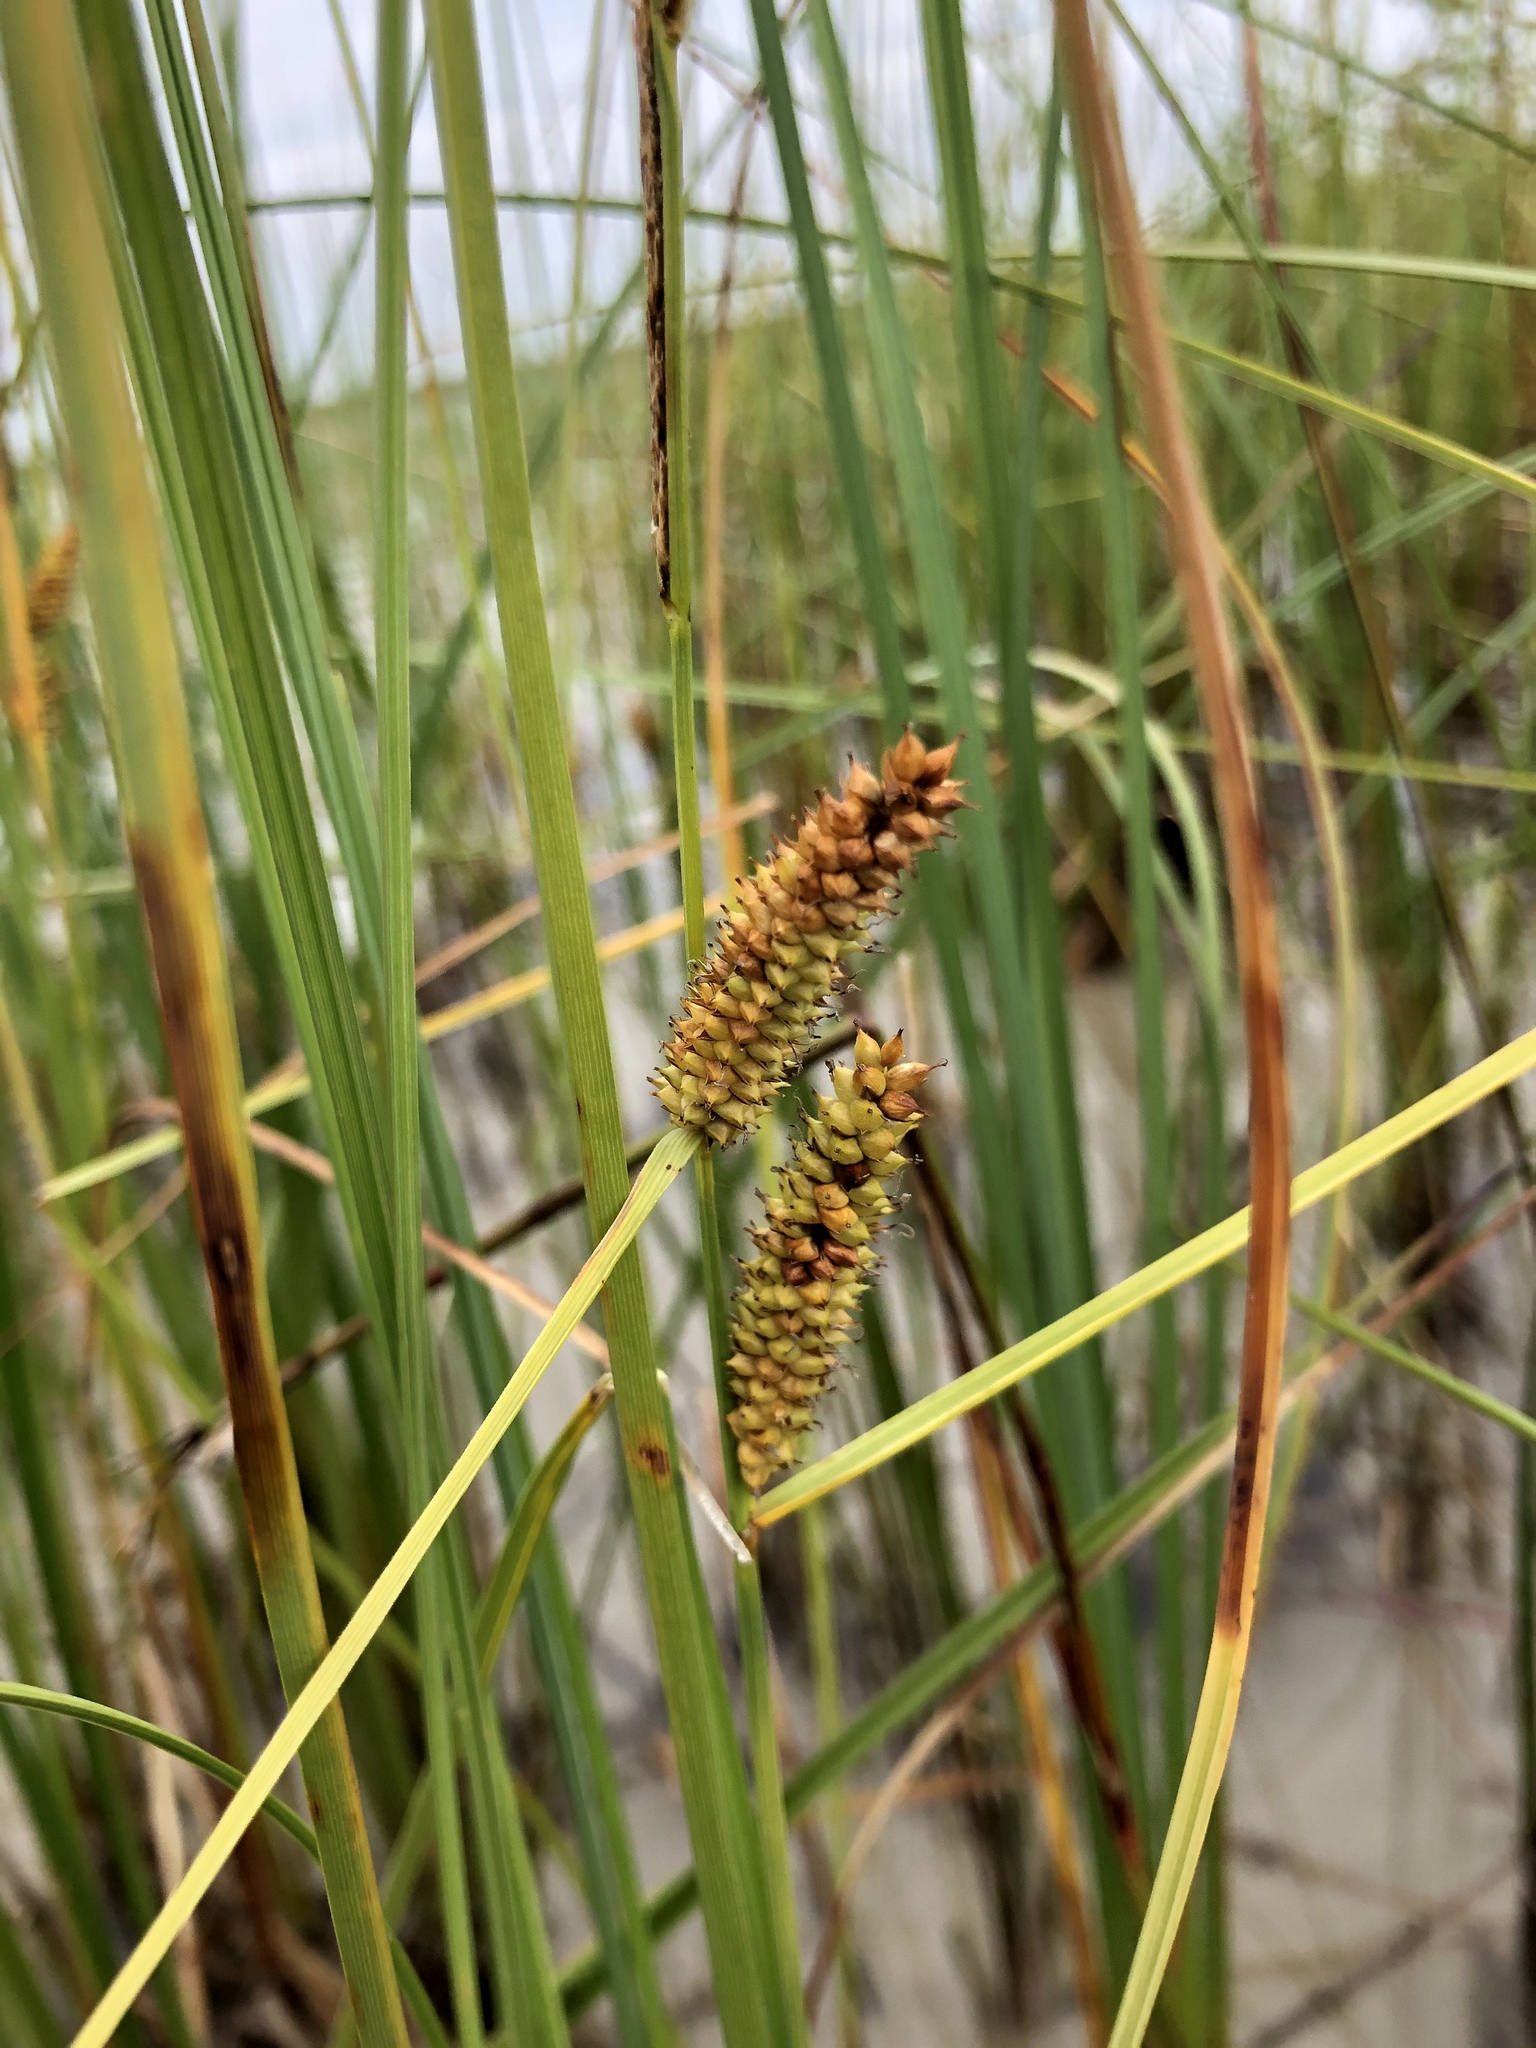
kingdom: Plantae
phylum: Tracheophyta
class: Liliopsida
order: Poales
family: Cyperaceae
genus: Carex
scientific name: Carex rostrata
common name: Bottle sedge
